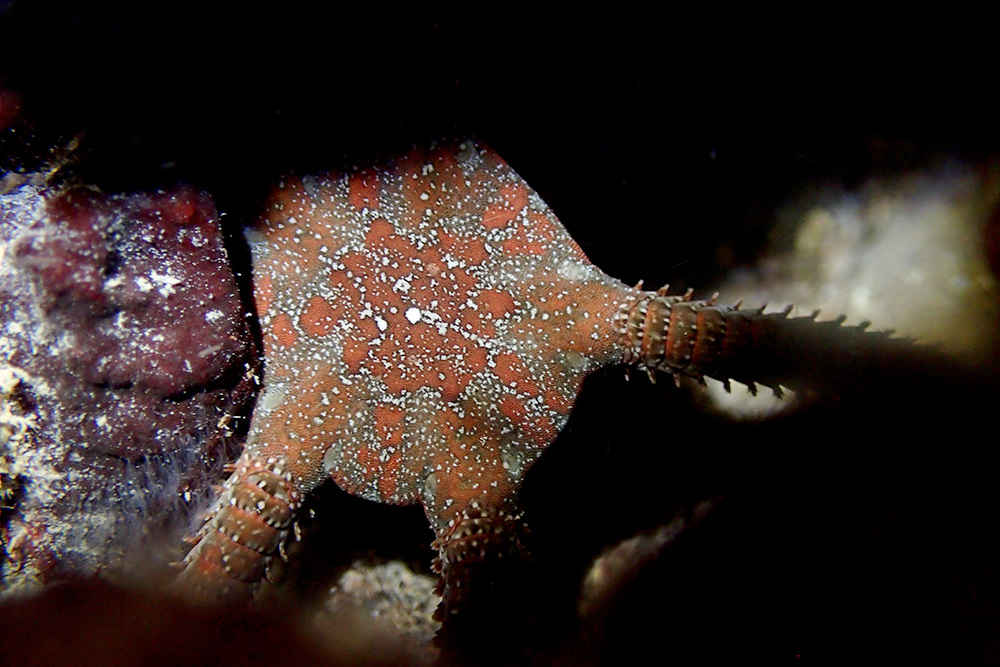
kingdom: Animalia
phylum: Echinodermata
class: Ophiuroidea
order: Ophiacanthida
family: Ophiodermatidae
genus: Ophioderma
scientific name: Ophioderma longicaudum
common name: Smooth brittle-star
